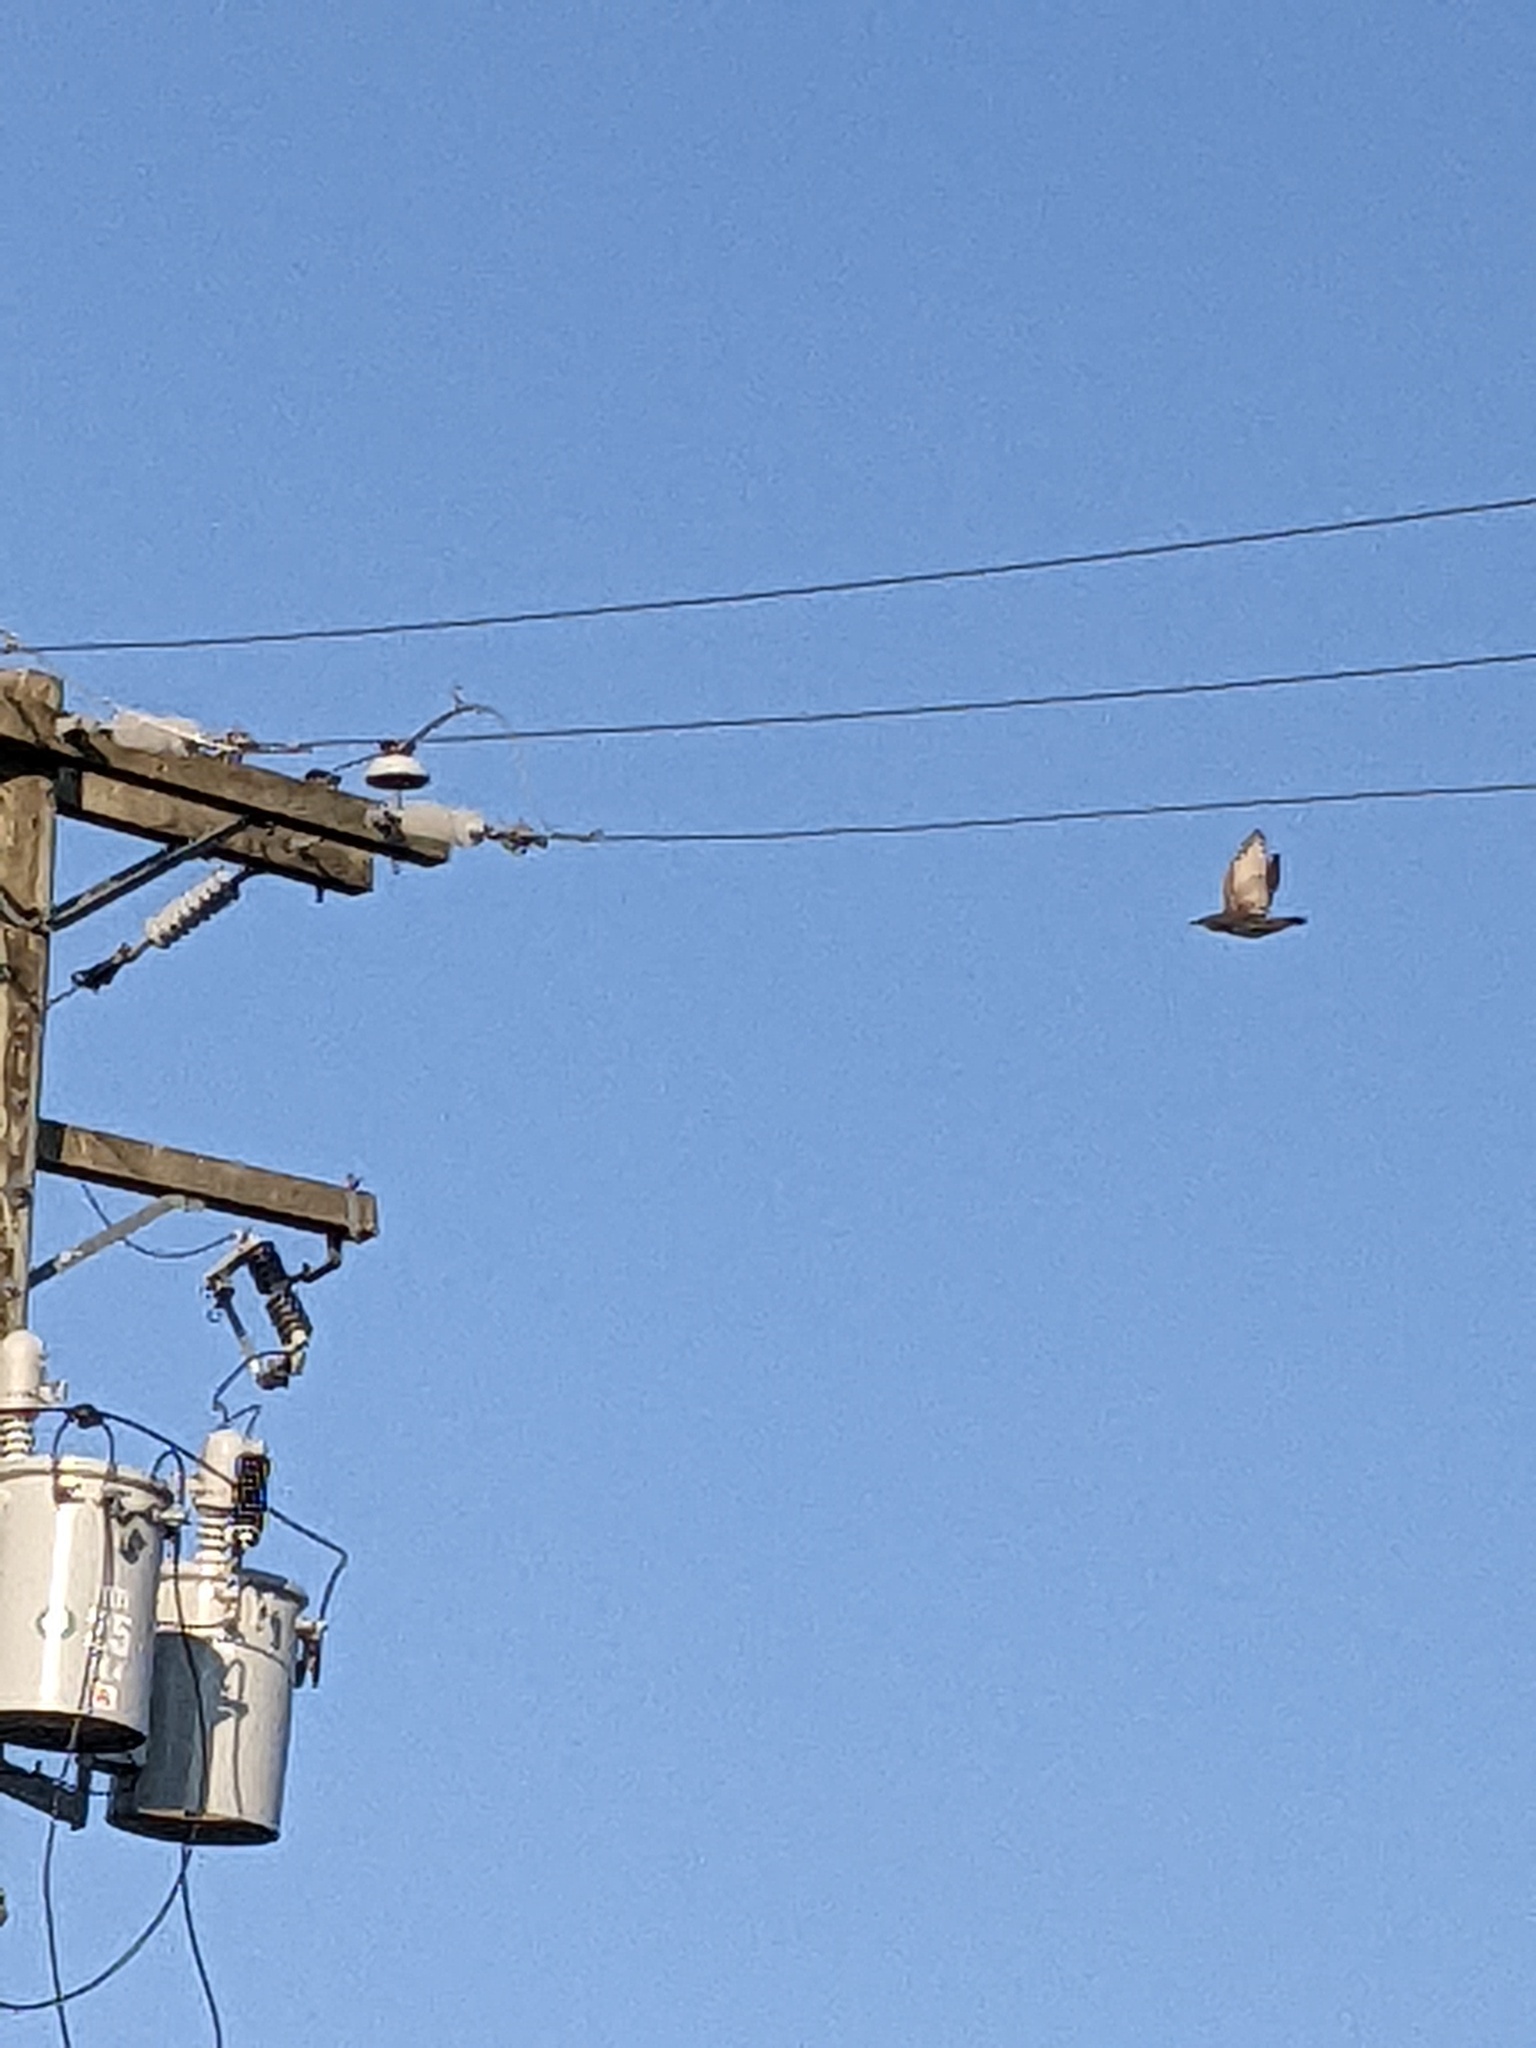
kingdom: Animalia
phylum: Chordata
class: Aves
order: Passeriformes
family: Sturnidae
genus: Sturnus
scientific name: Sturnus vulgaris
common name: Common starling
